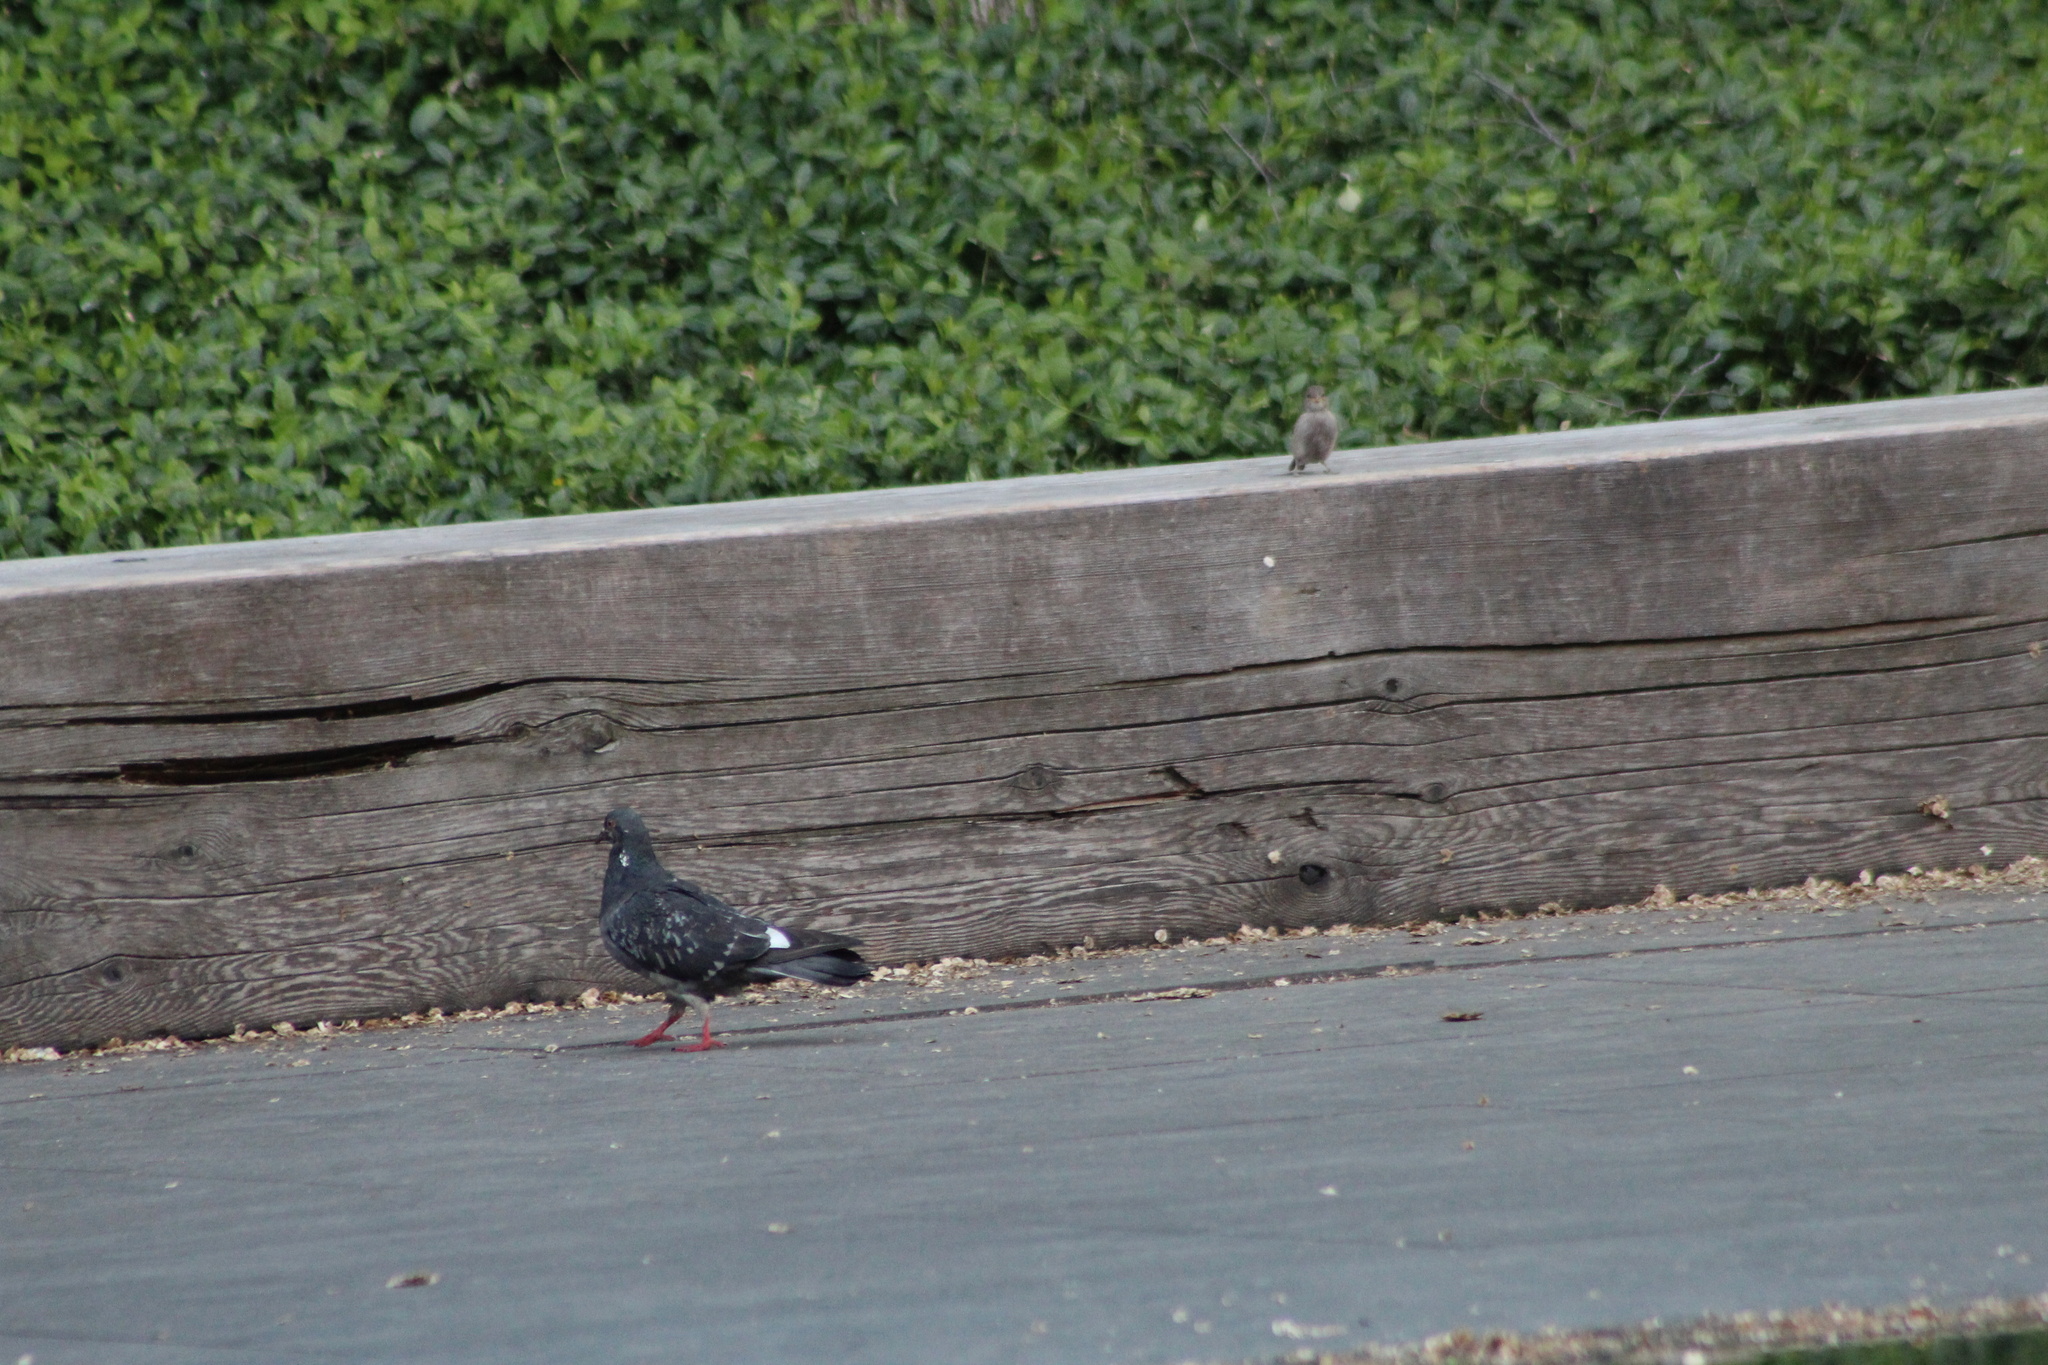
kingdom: Animalia
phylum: Chordata
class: Aves
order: Columbiformes
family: Columbidae
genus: Columba
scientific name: Columba livia
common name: Rock pigeon
